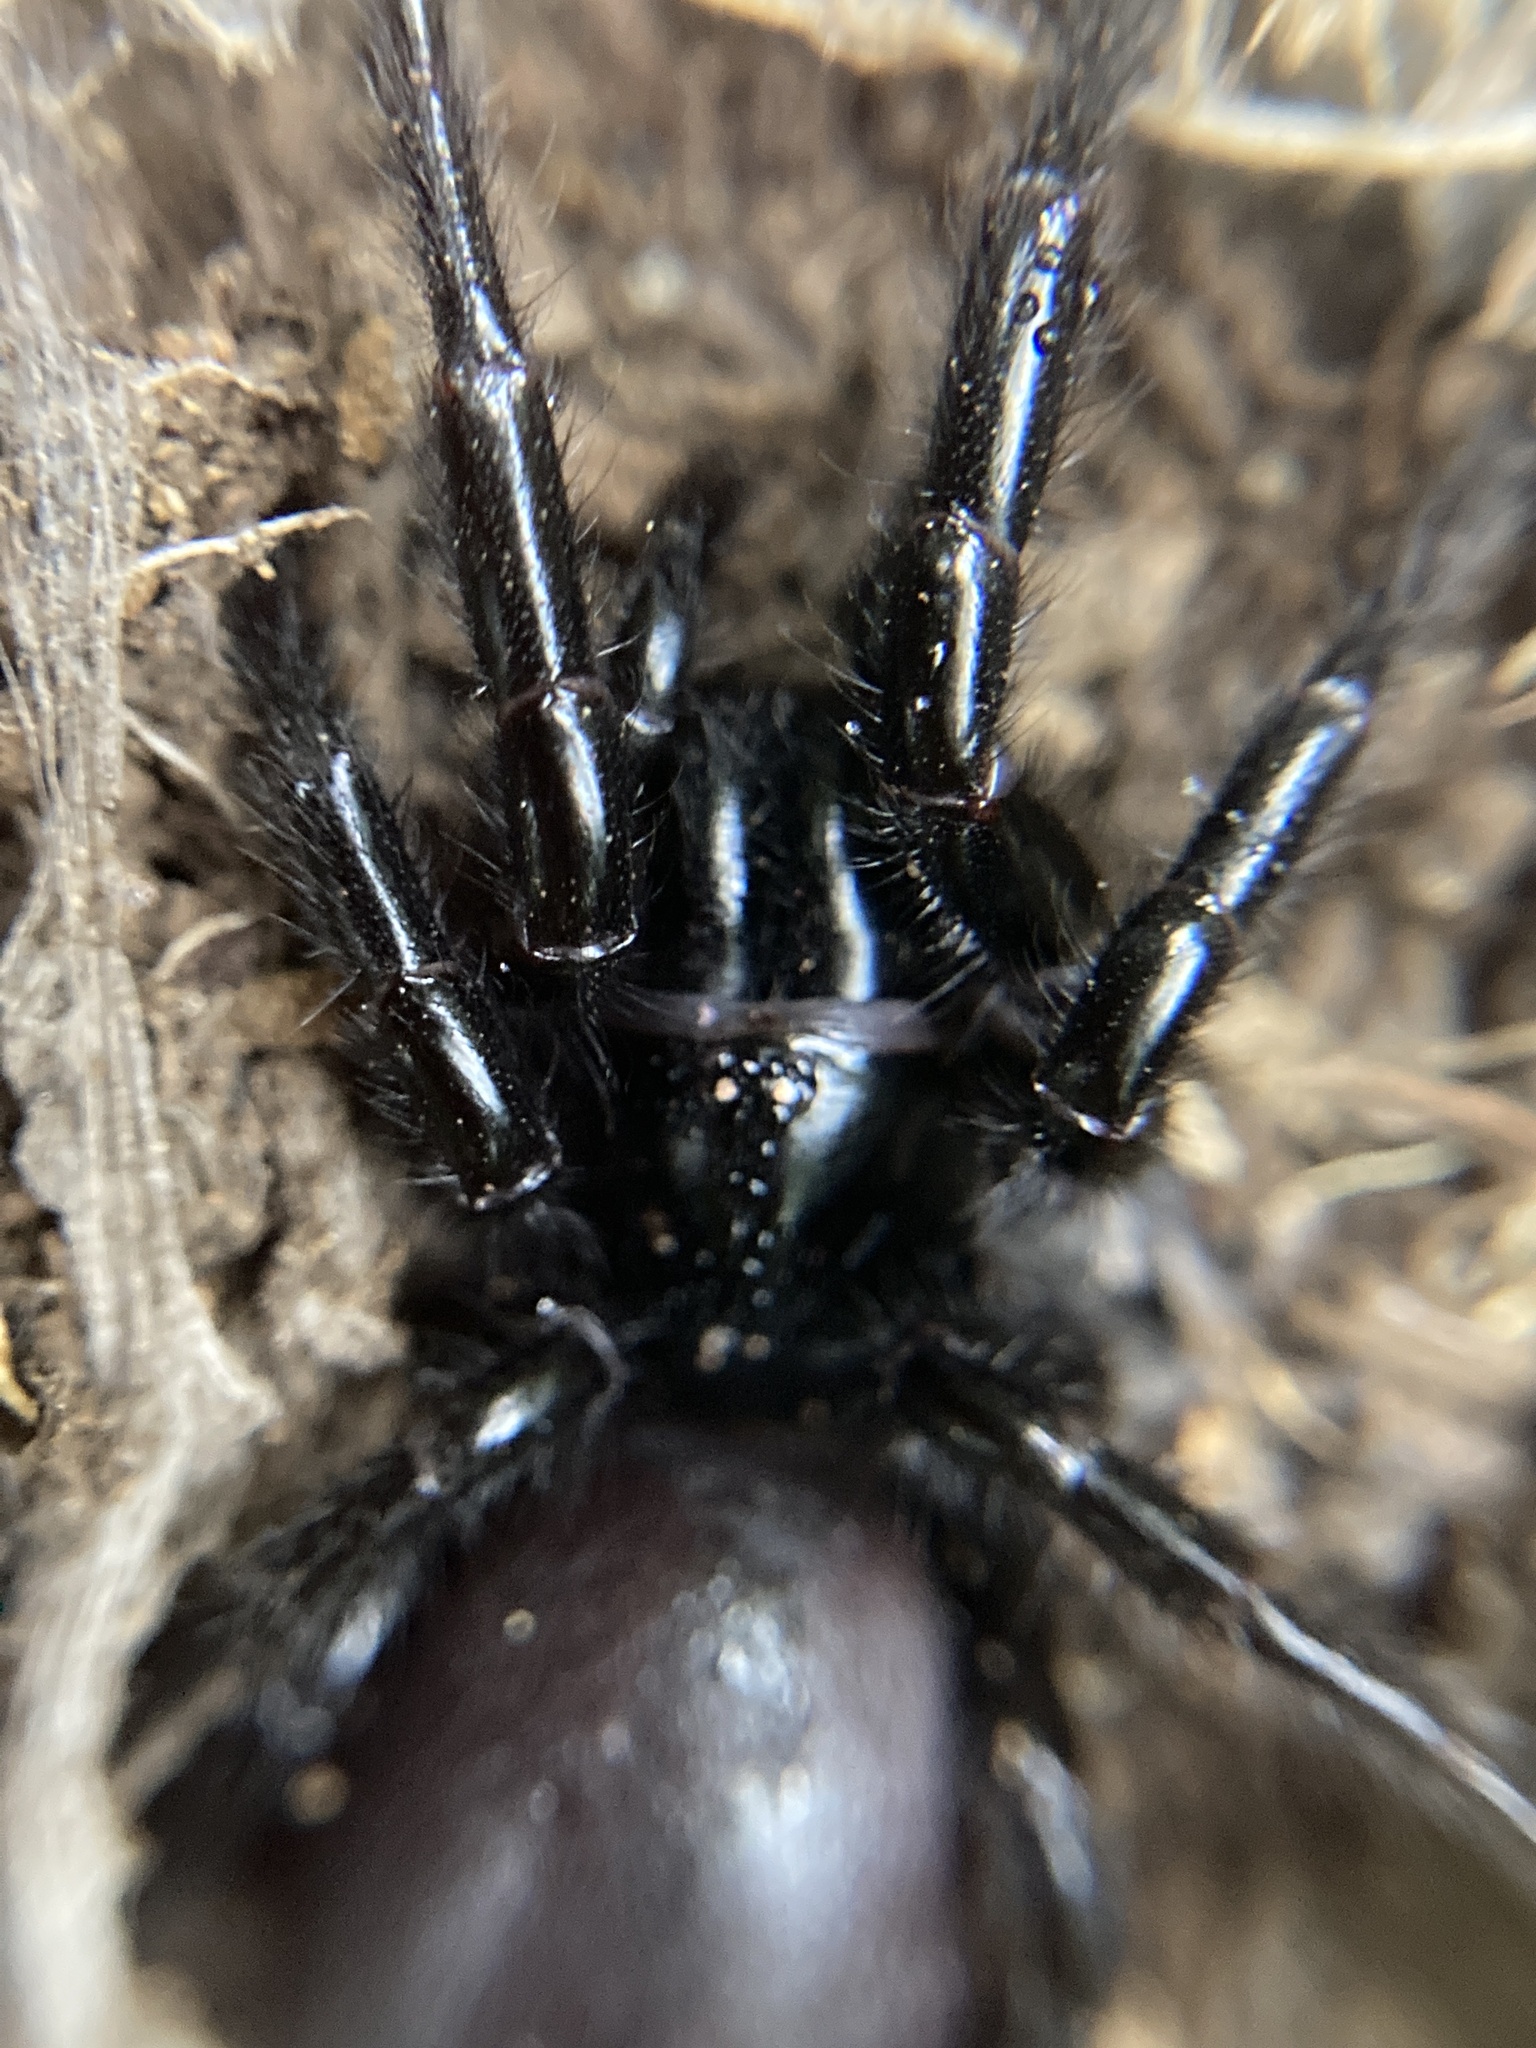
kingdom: Animalia
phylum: Arthropoda
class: Arachnida
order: Araneae
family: Atracidae
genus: Atrax
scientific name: Atrax robustus
